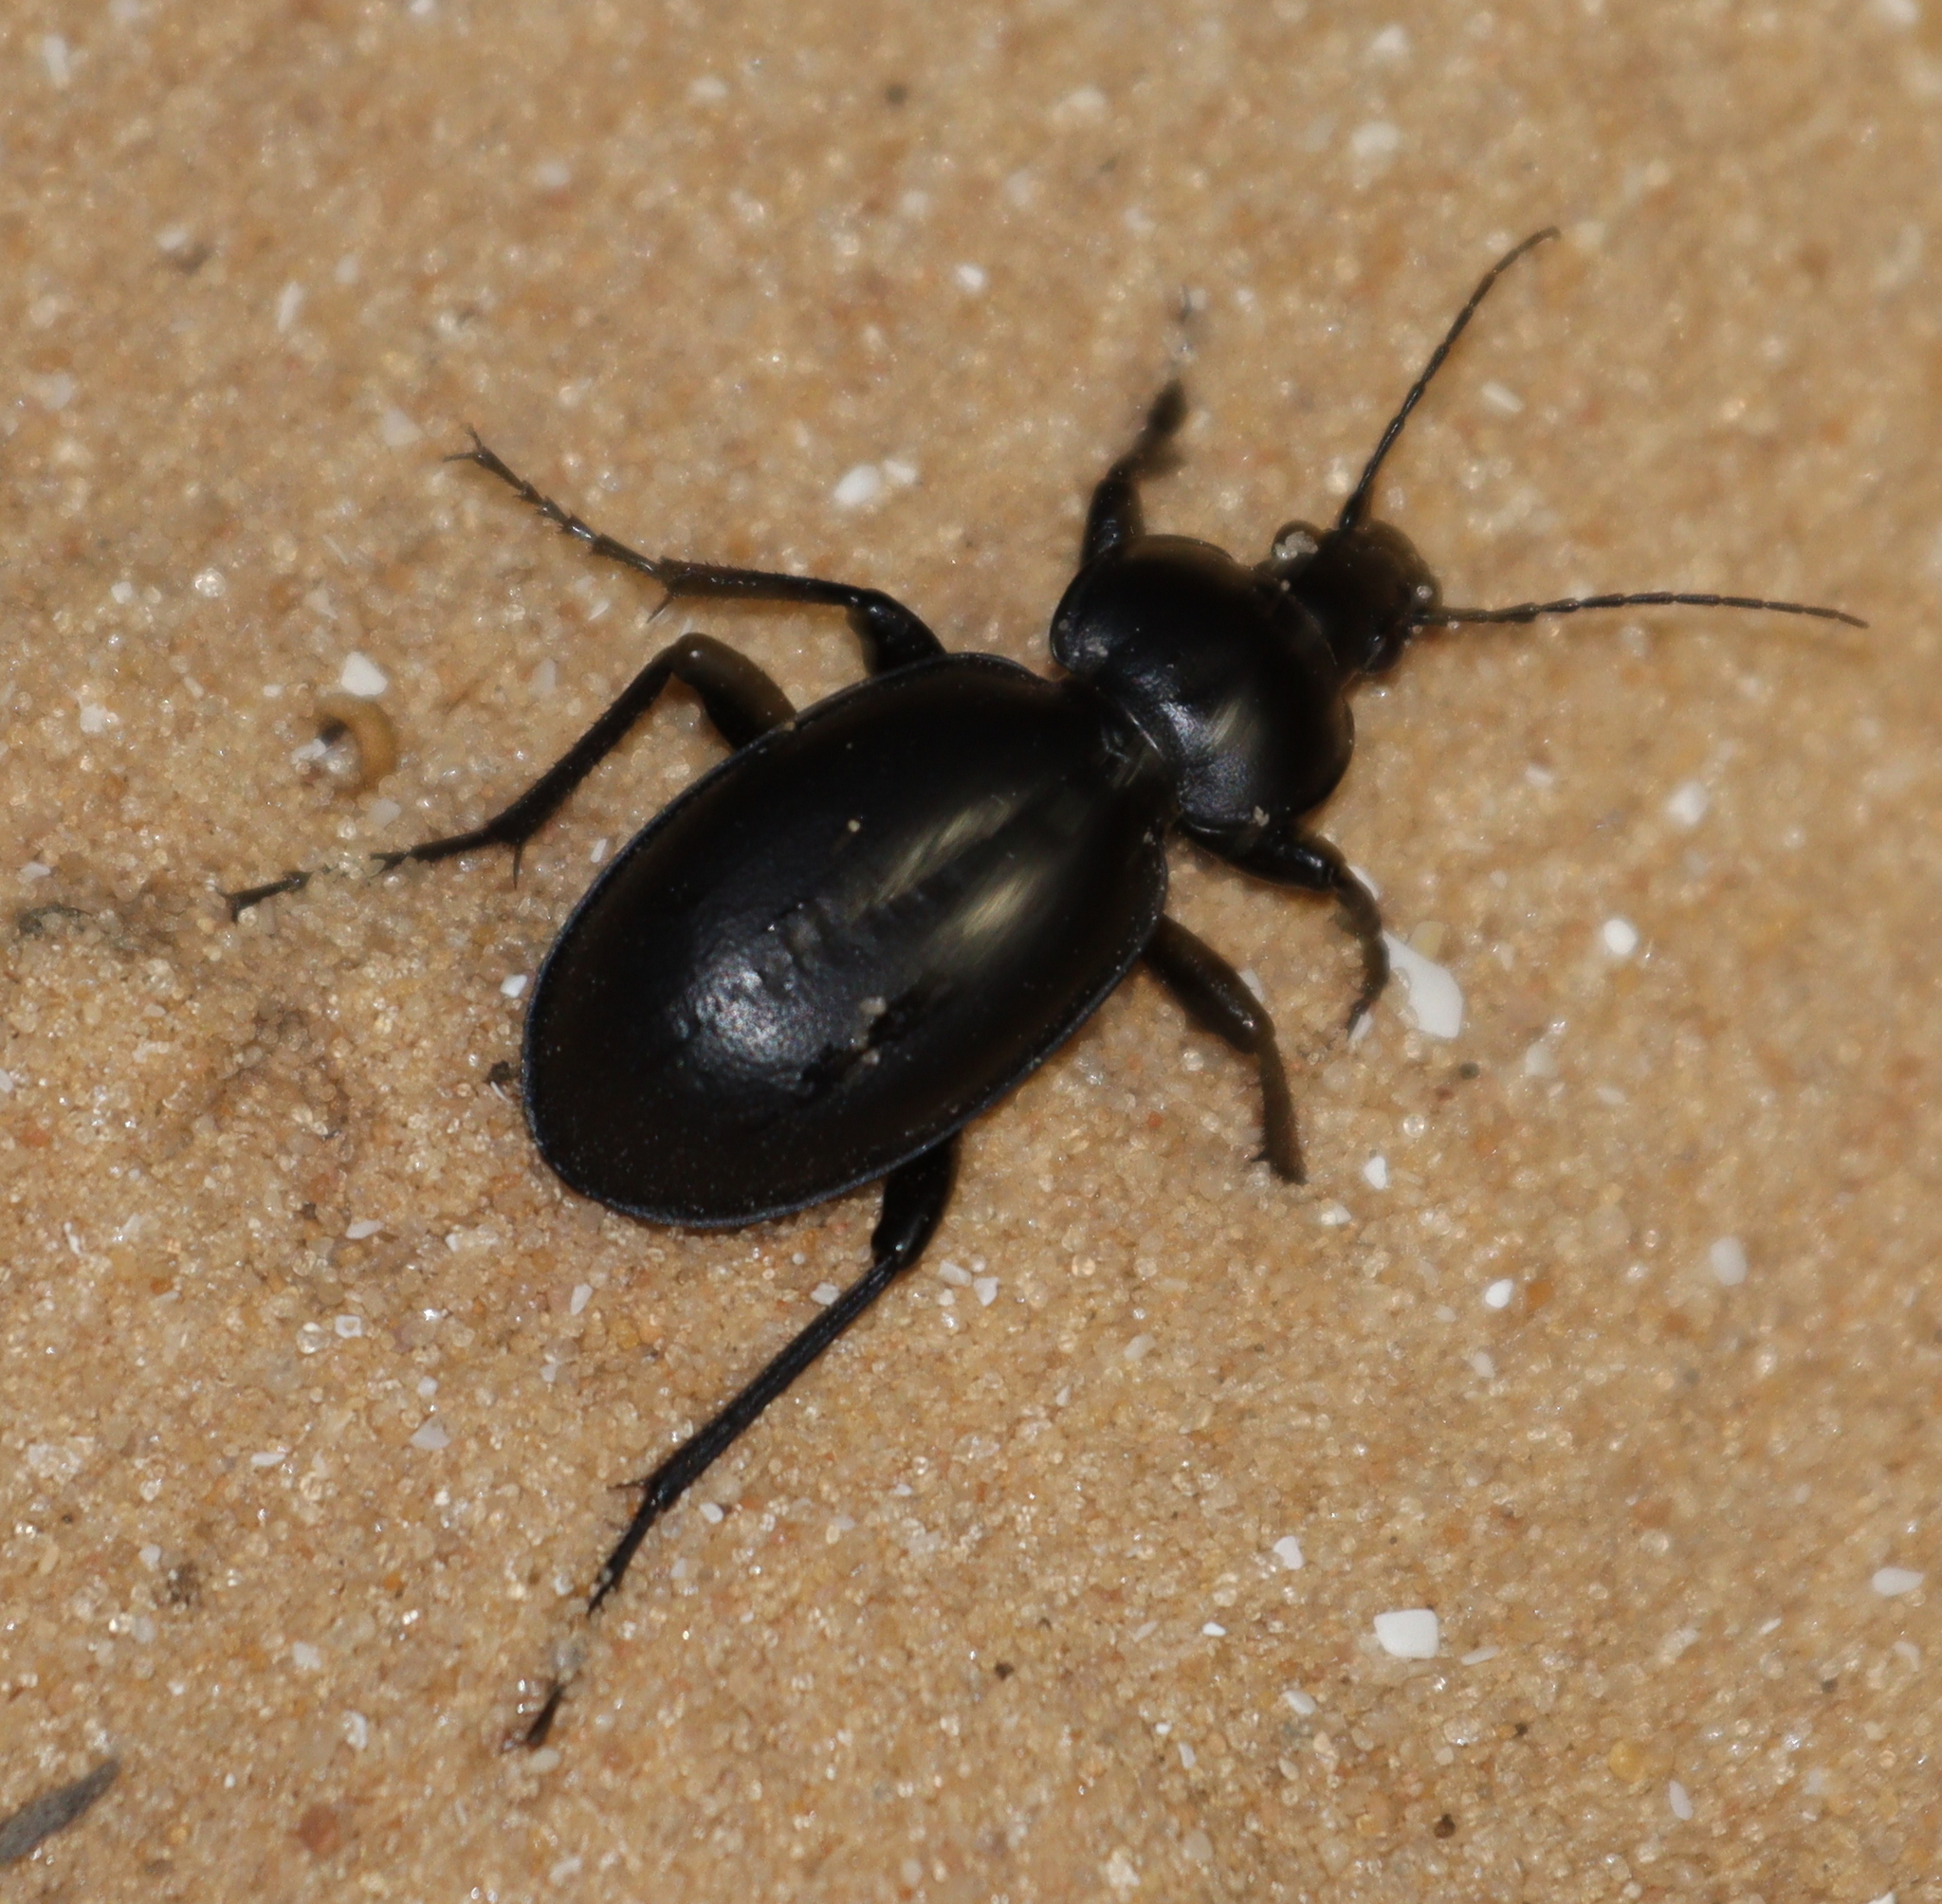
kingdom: Animalia
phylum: Arthropoda
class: Insecta
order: Coleoptera
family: Carabidae
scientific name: Carabidae
